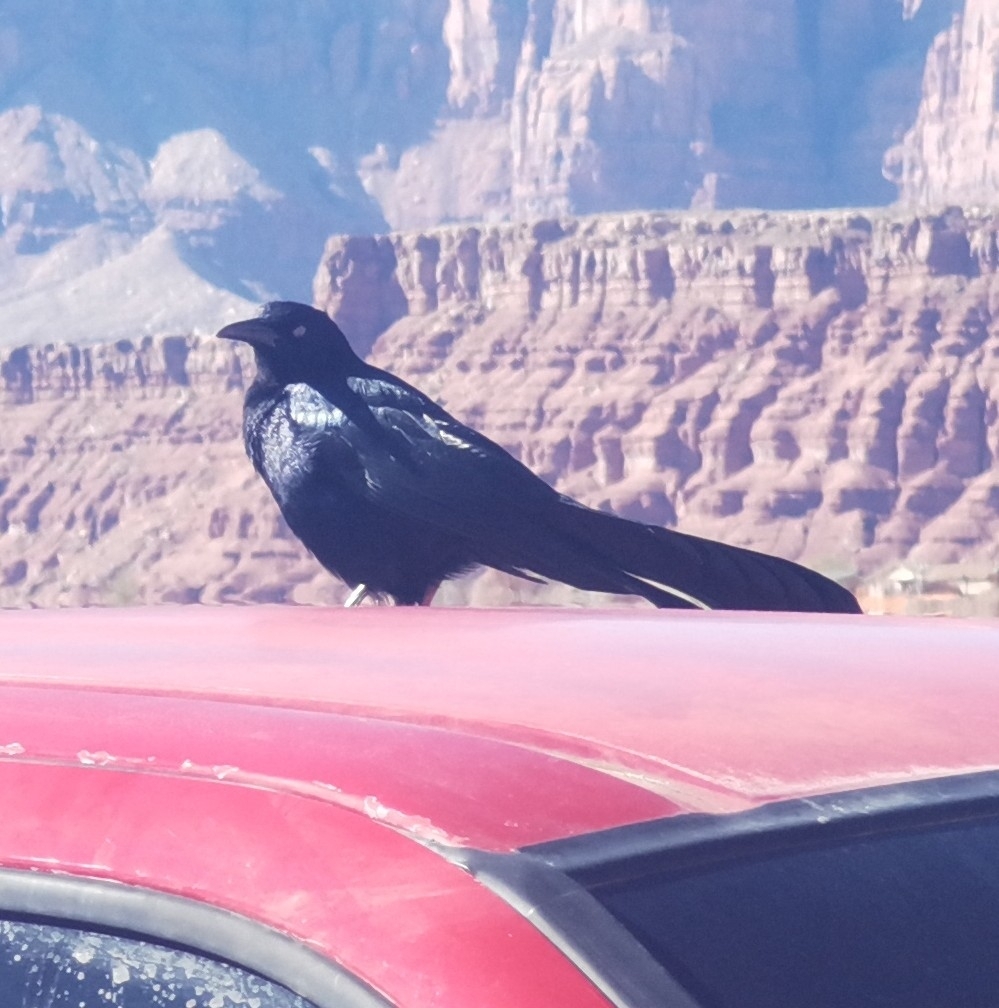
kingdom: Animalia
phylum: Chordata
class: Aves
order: Passeriformes
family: Icteridae
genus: Quiscalus
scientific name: Quiscalus mexicanus
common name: Great-tailed grackle
